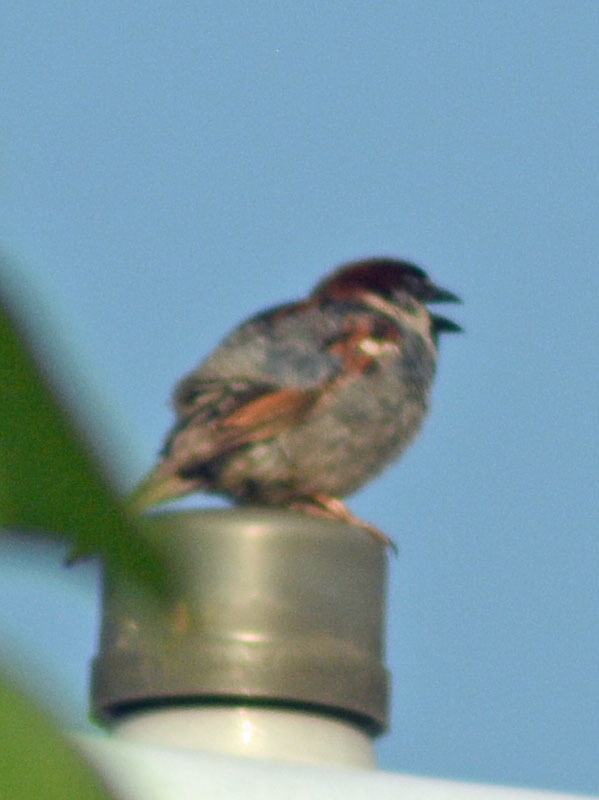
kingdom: Animalia
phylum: Chordata
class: Aves
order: Passeriformes
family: Passeridae
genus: Passer
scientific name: Passer domesticus
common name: House sparrow
